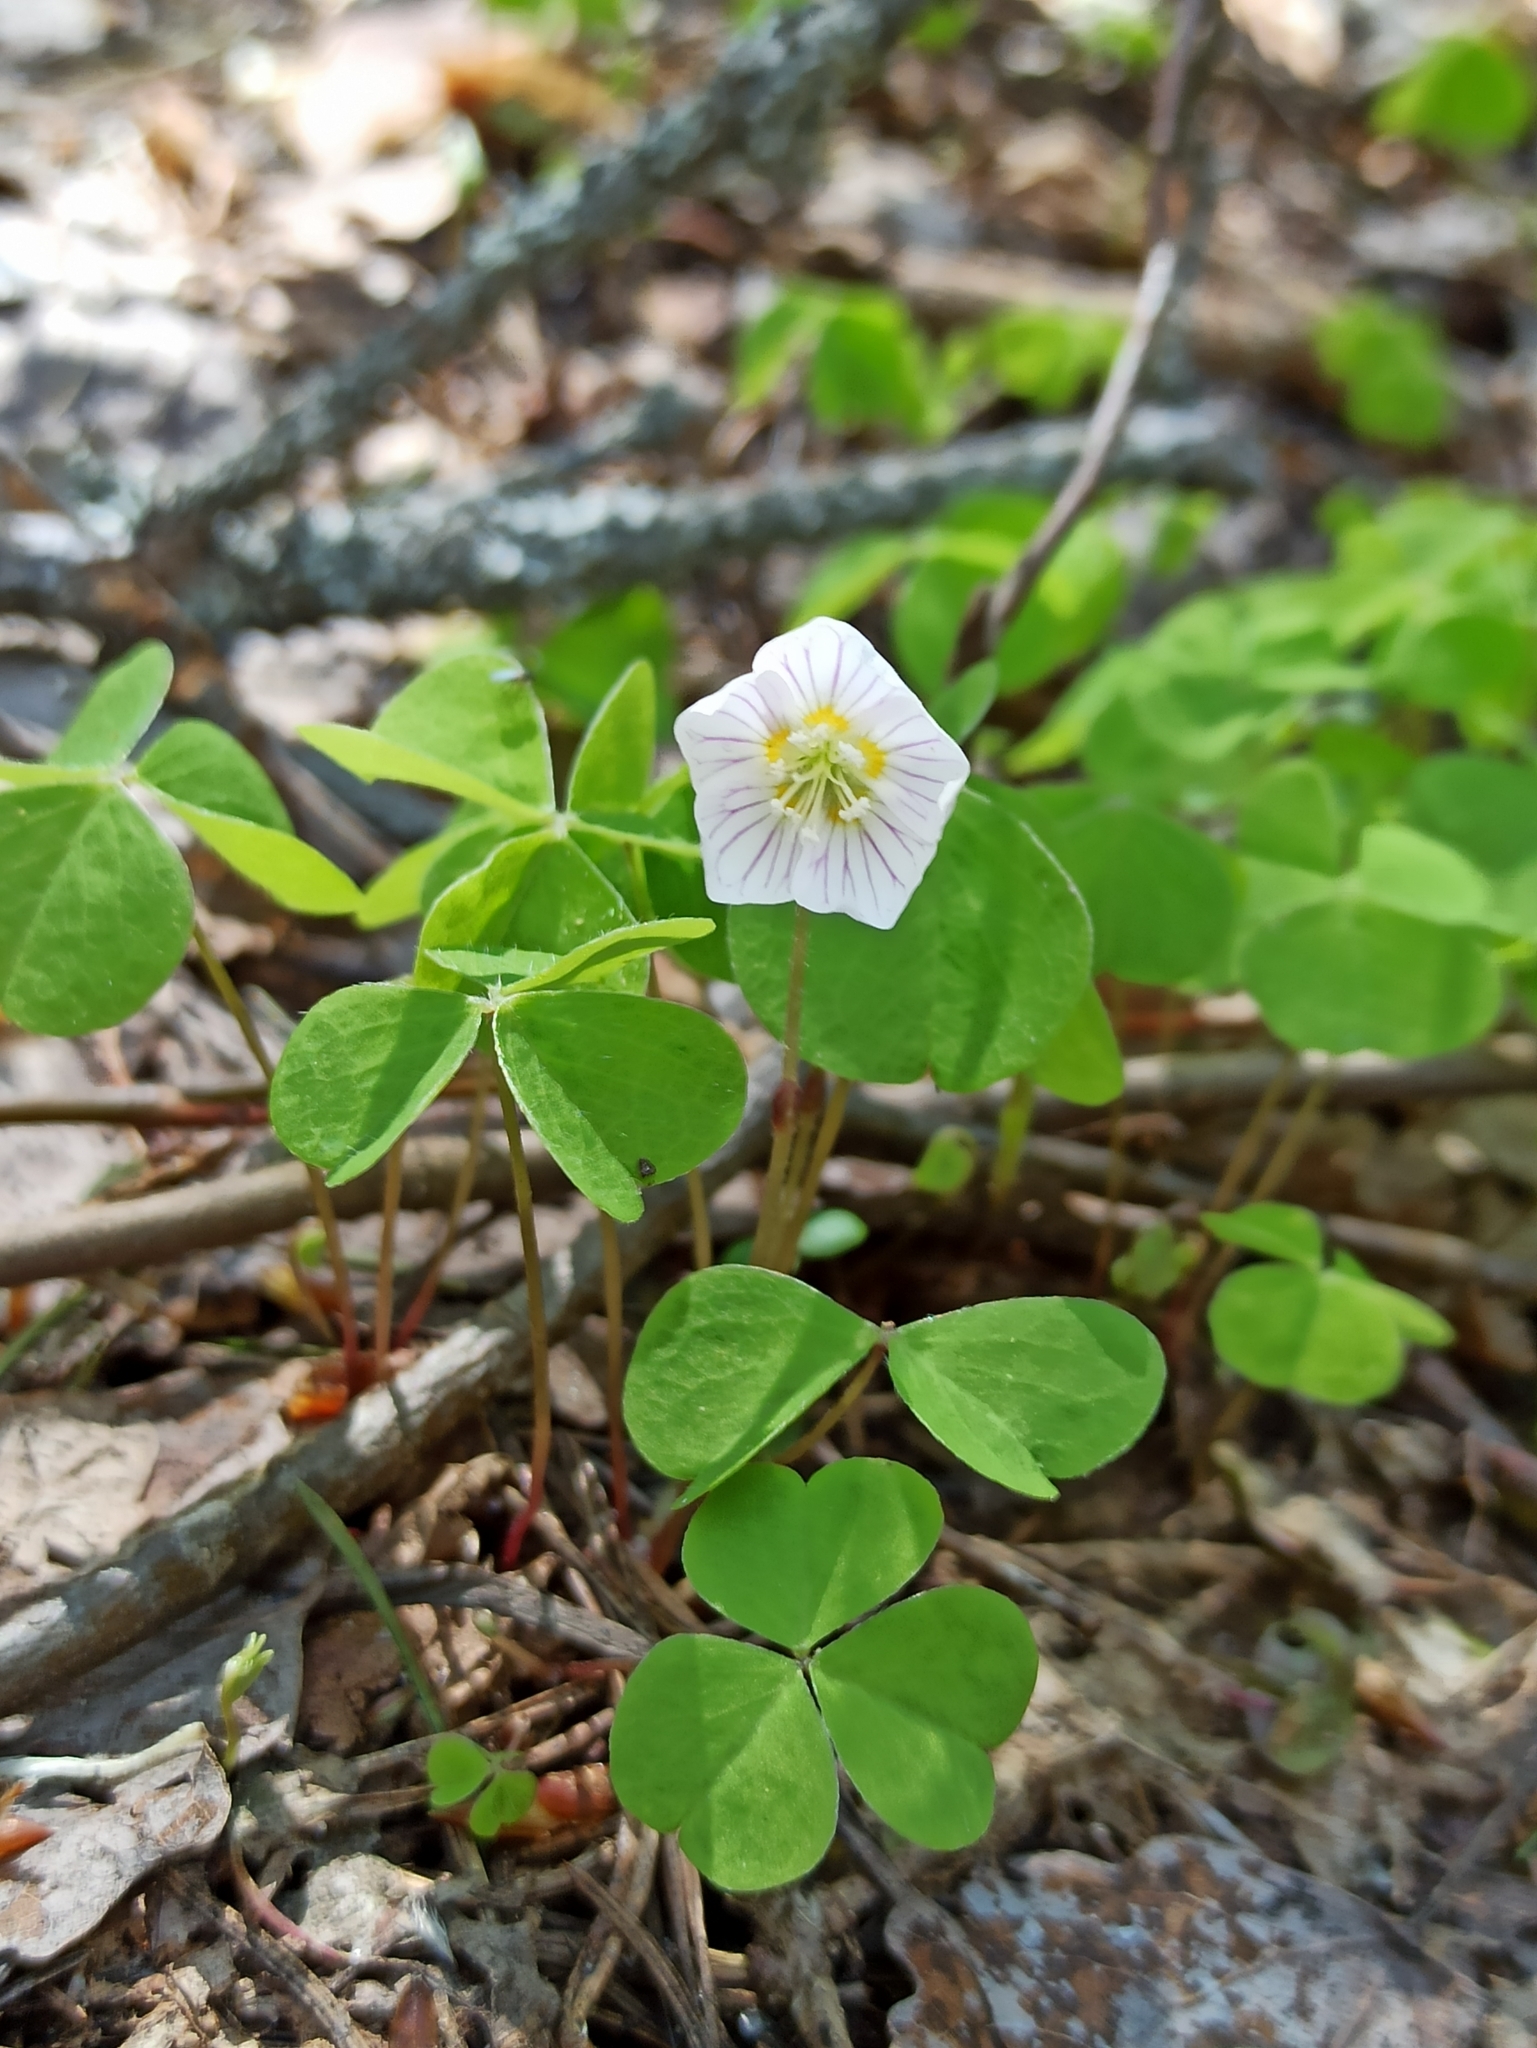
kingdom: Plantae
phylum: Tracheophyta
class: Magnoliopsida
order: Oxalidales
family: Oxalidaceae
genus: Oxalis
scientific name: Oxalis acetosella
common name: Wood-sorrel
